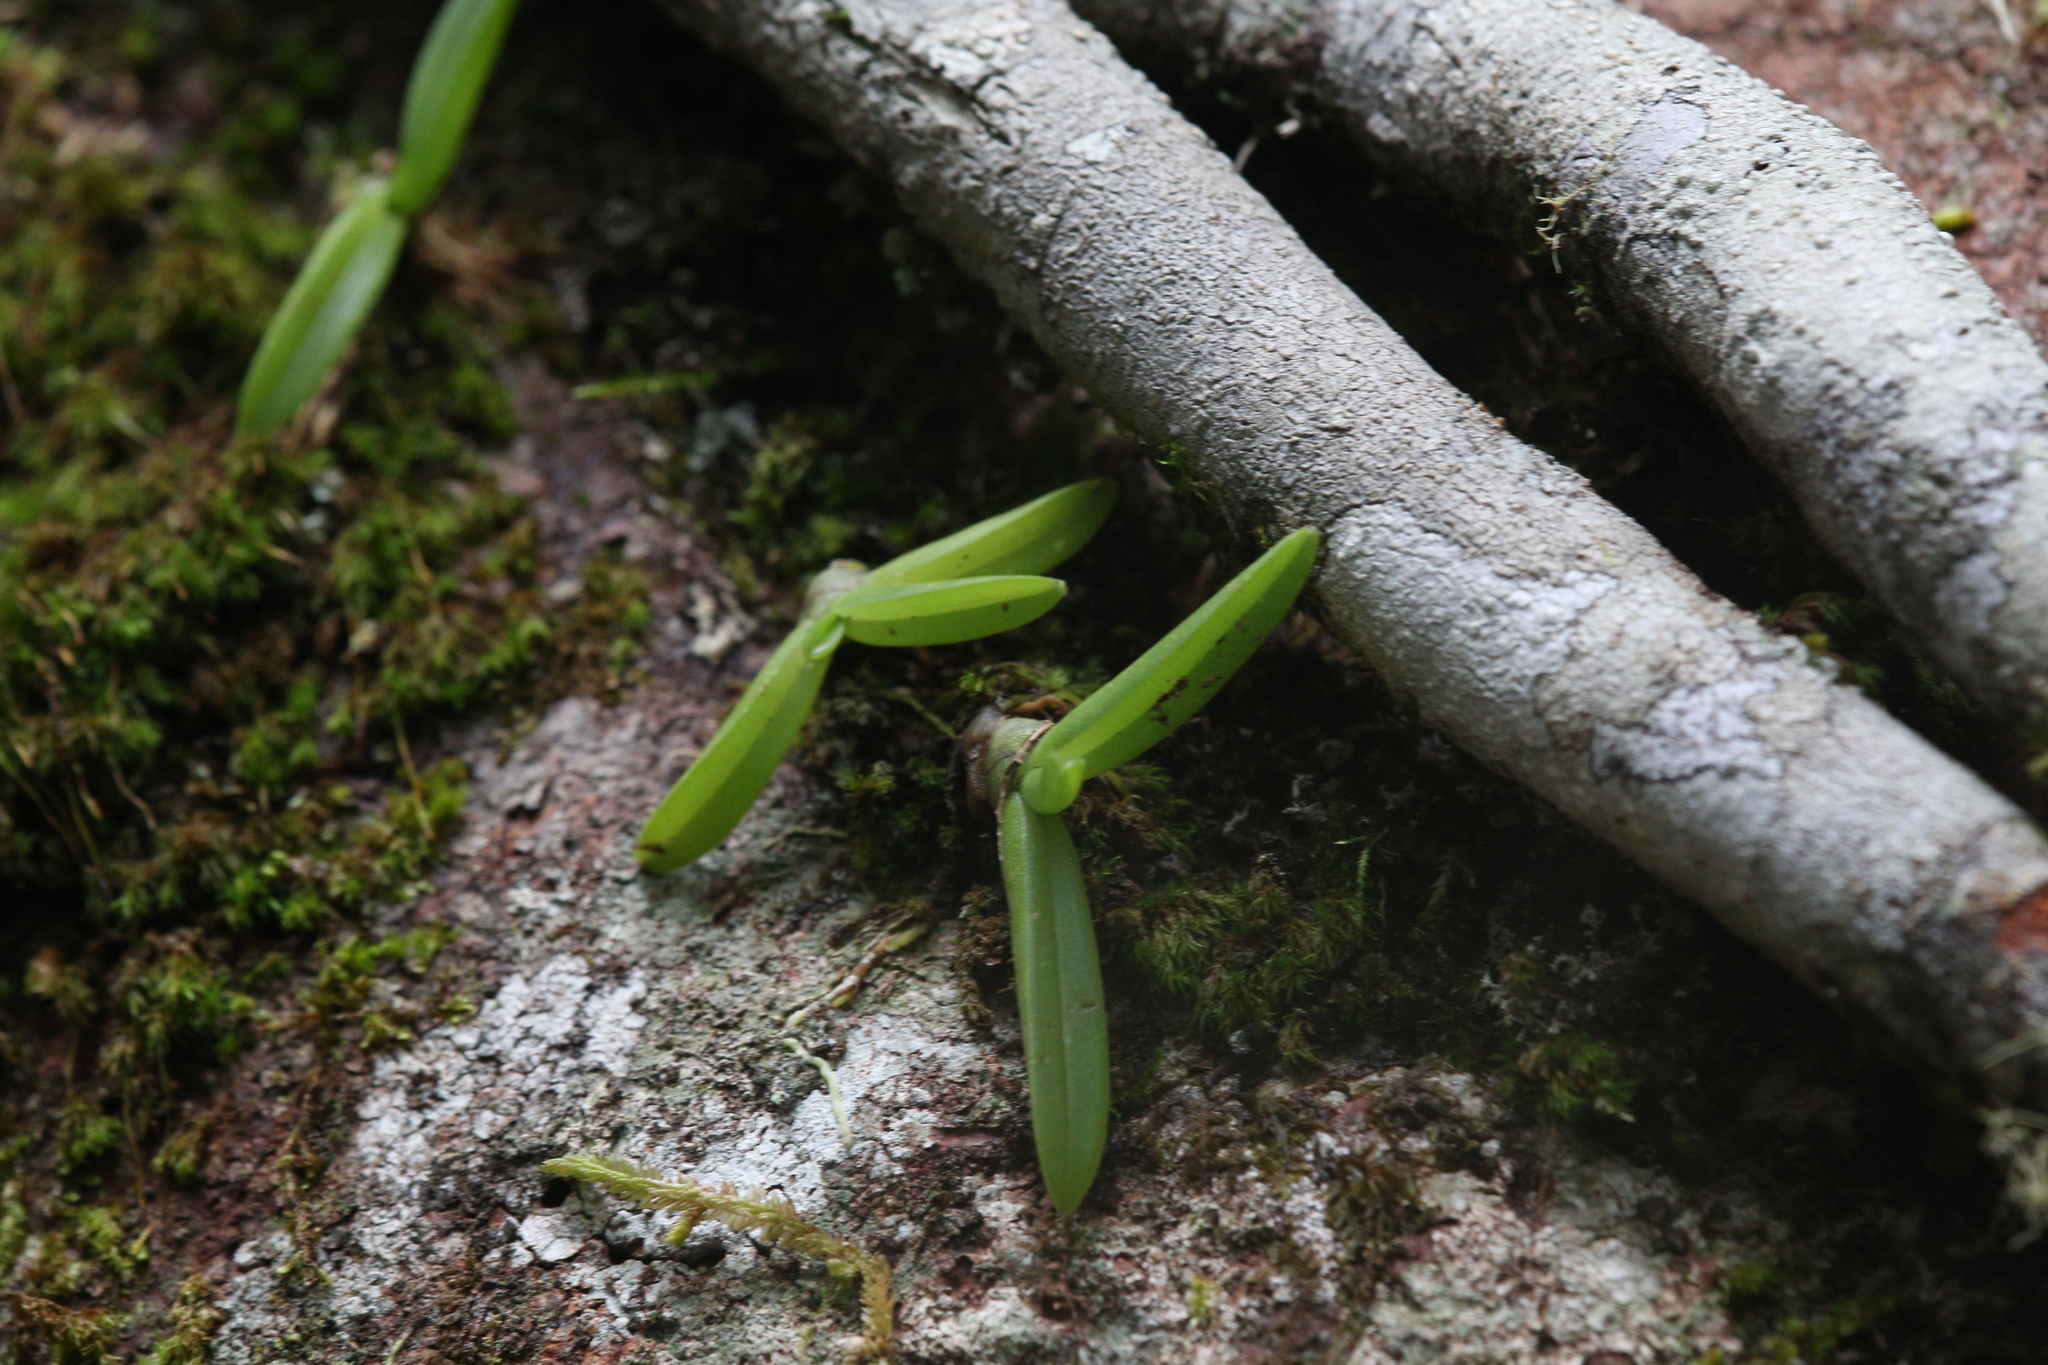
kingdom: Plantae
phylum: Tracheophyta
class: Liliopsida
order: Asparagales
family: Orchidaceae
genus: Phreatia
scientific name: Phreatia crassiuscula
